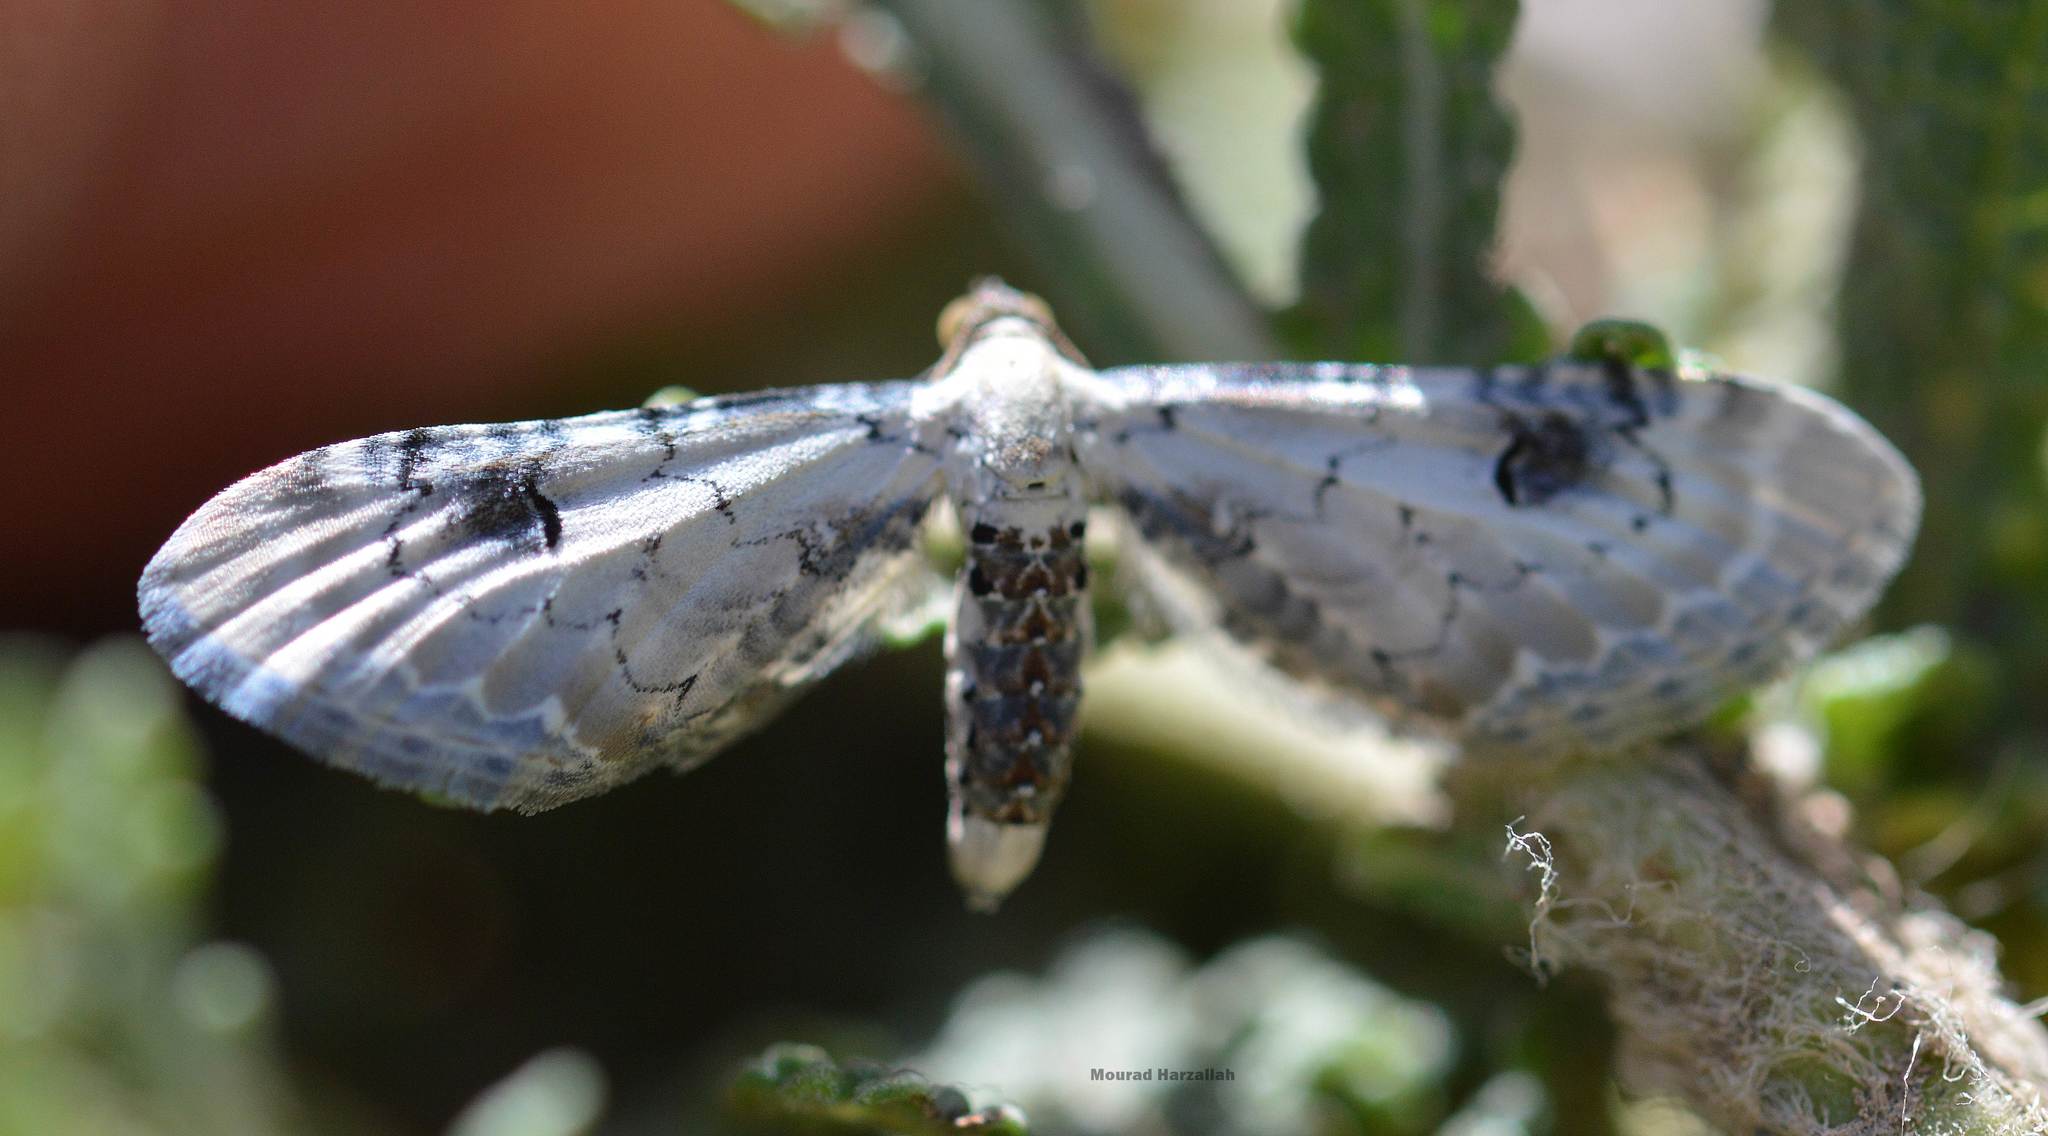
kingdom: Animalia
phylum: Arthropoda
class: Insecta
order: Lepidoptera
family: Geometridae
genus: Eupithecia
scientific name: Eupithecia centaureata
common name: Lime-speck pug
